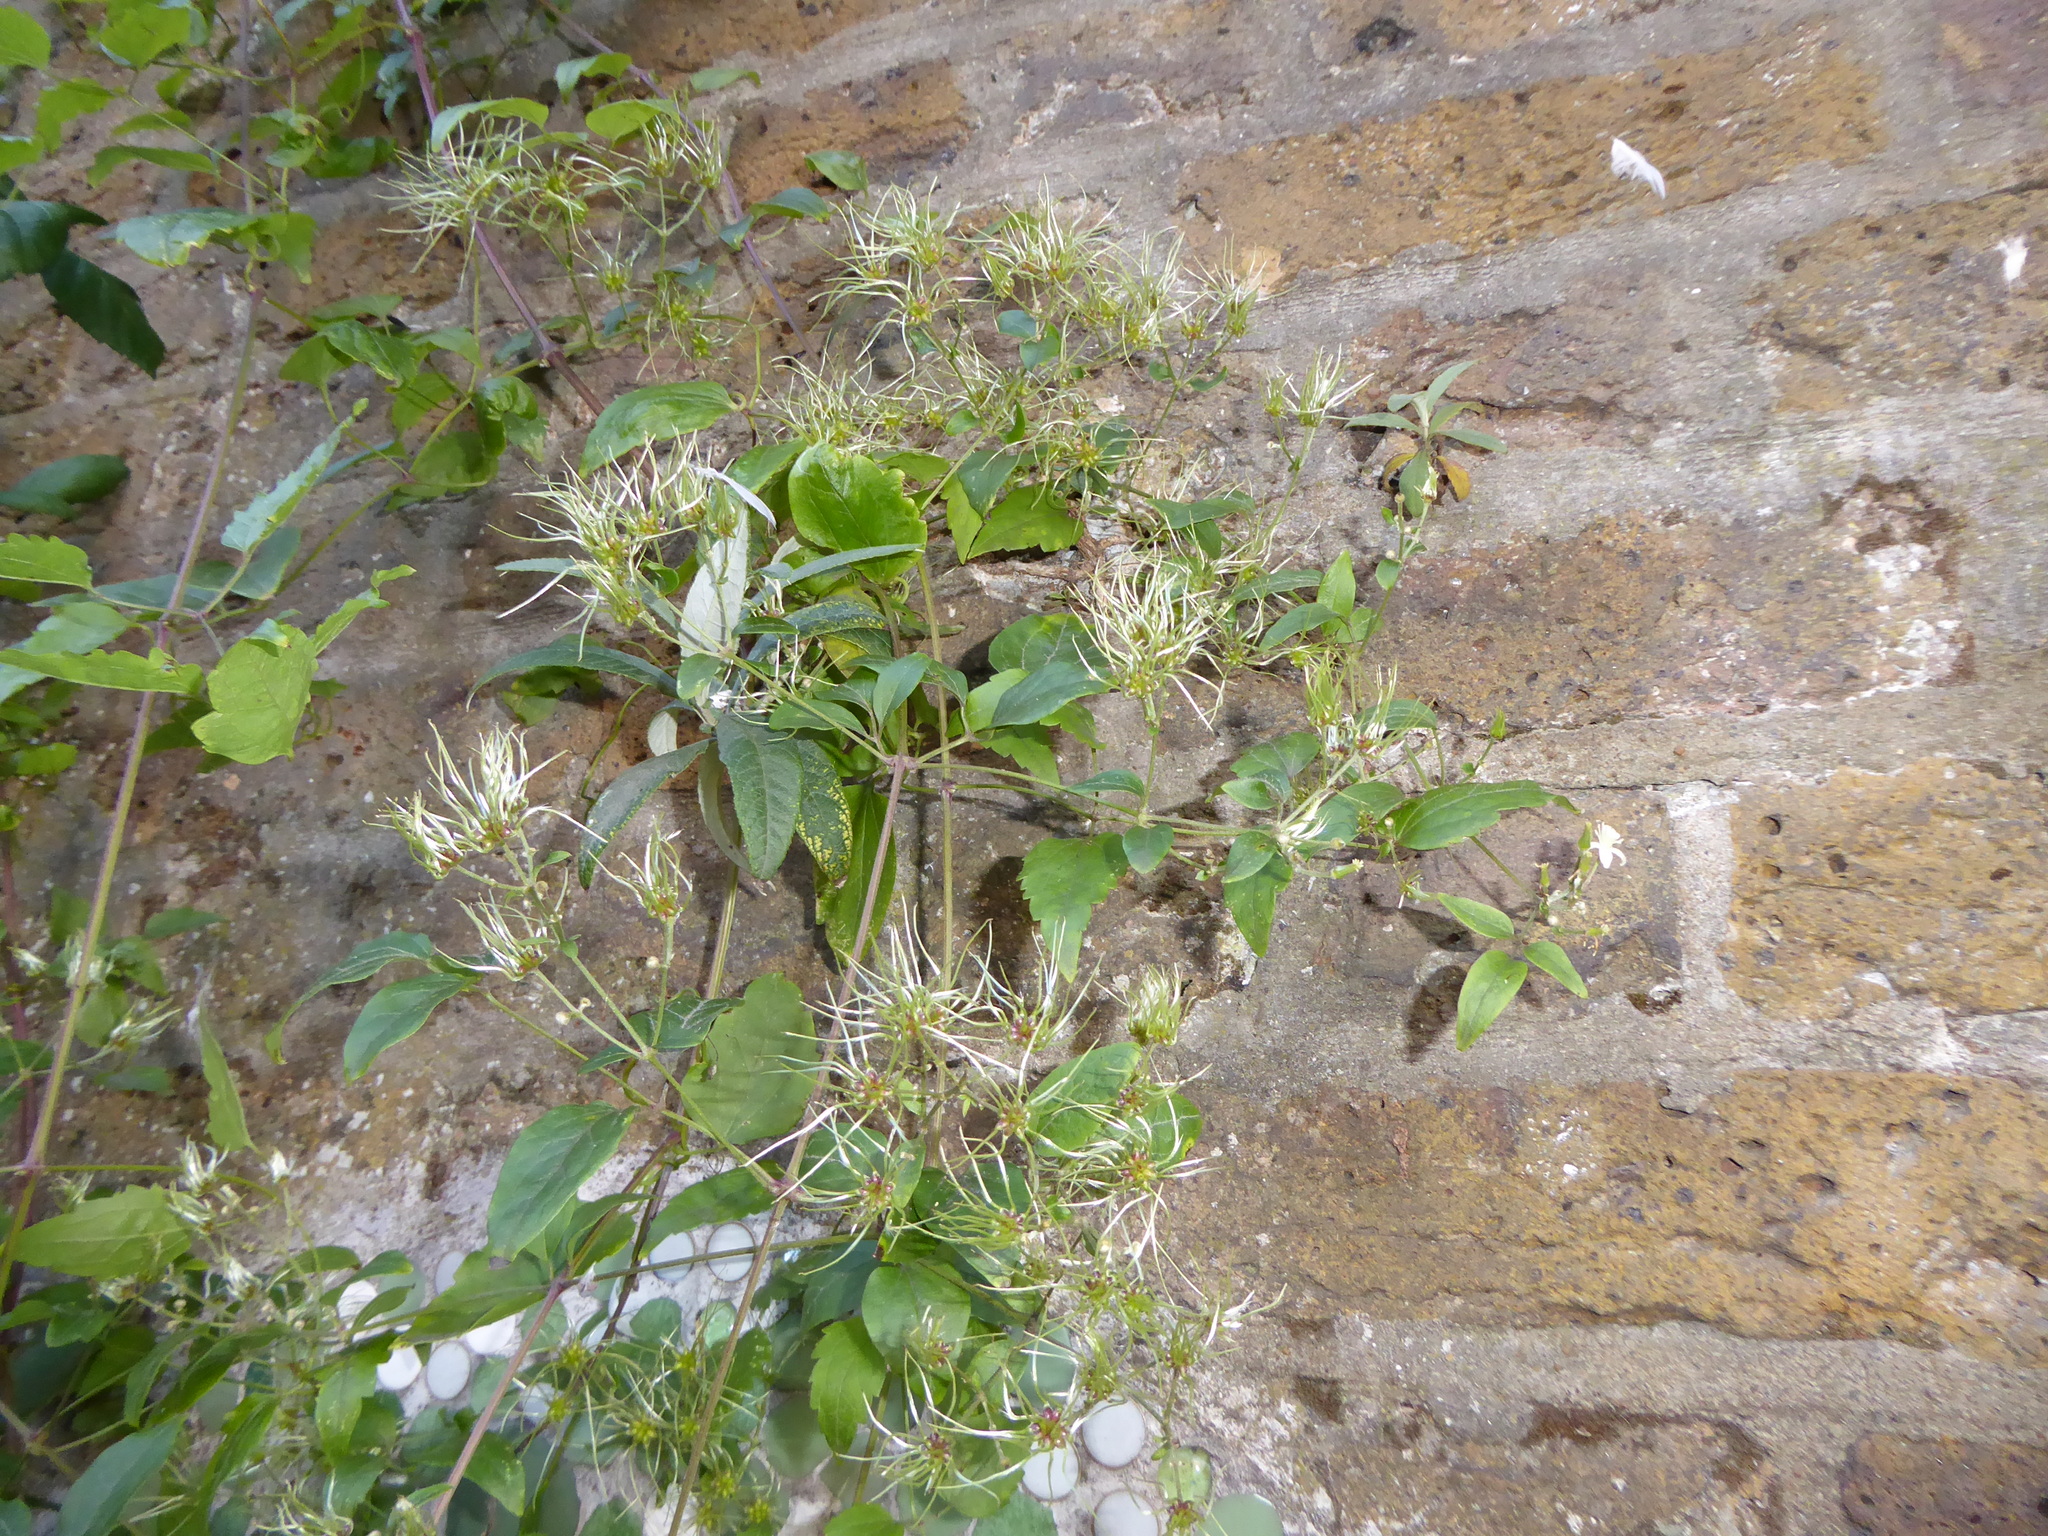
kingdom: Plantae
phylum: Tracheophyta
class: Magnoliopsida
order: Ranunculales
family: Ranunculaceae
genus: Clematis
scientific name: Clematis vitalba
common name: Evergreen clematis
